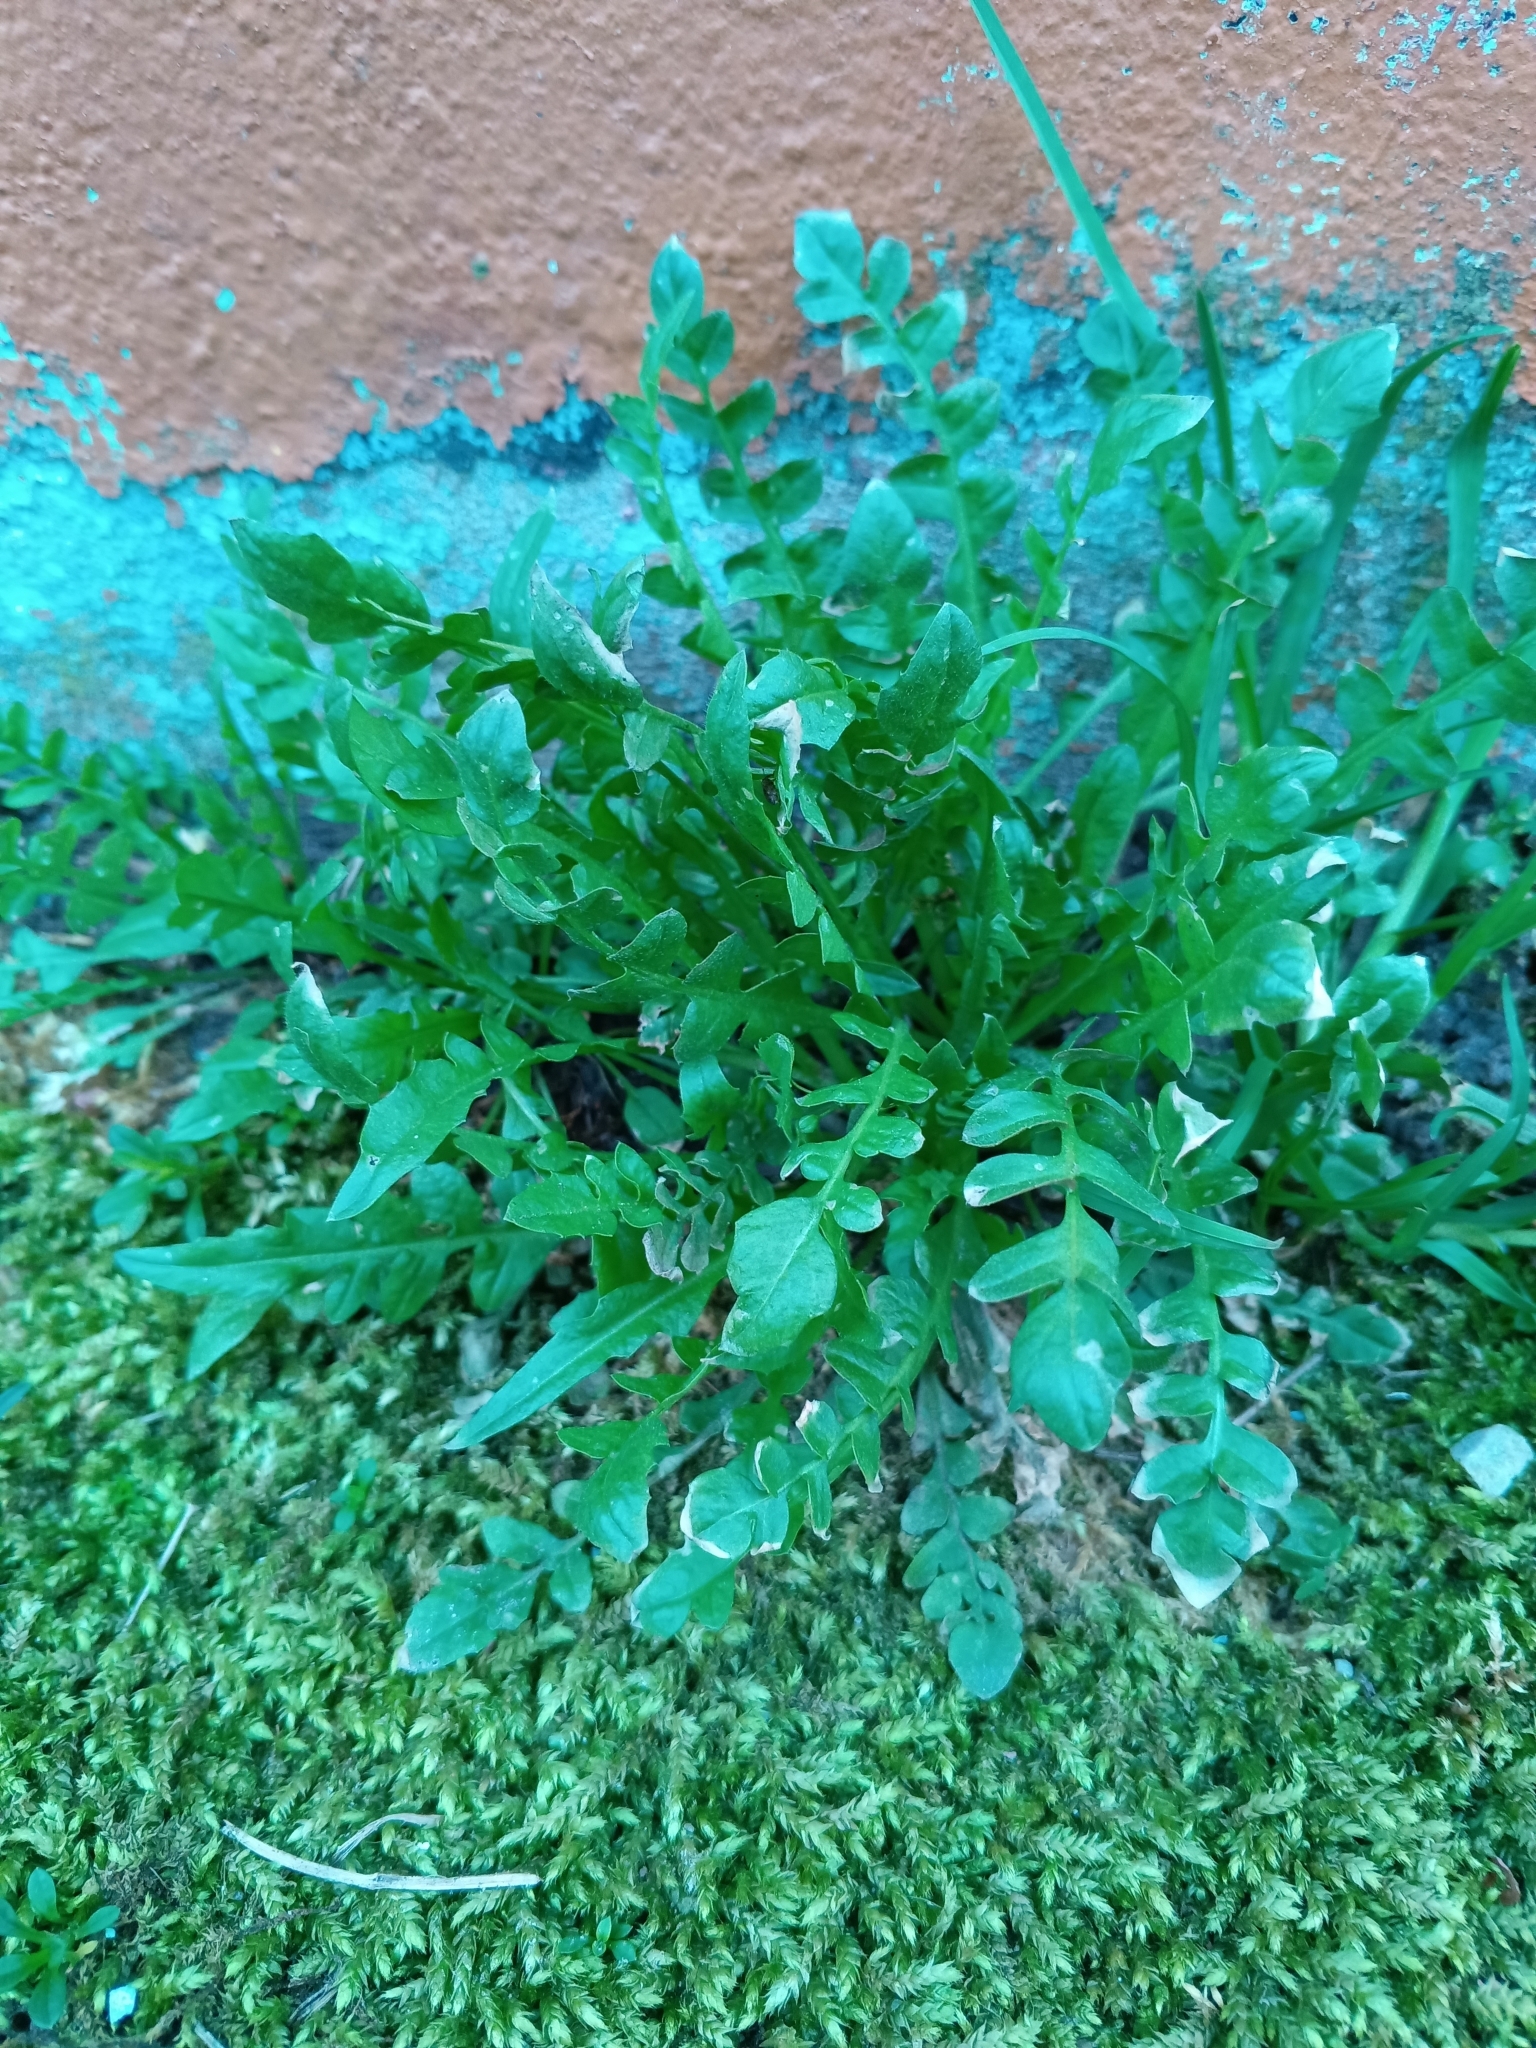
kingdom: Plantae
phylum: Tracheophyta
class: Magnoliopsida
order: Brassicales
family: Brassicaceae
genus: Capsella
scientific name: Capsella bursa-pastoris
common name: Shepherd's purse
